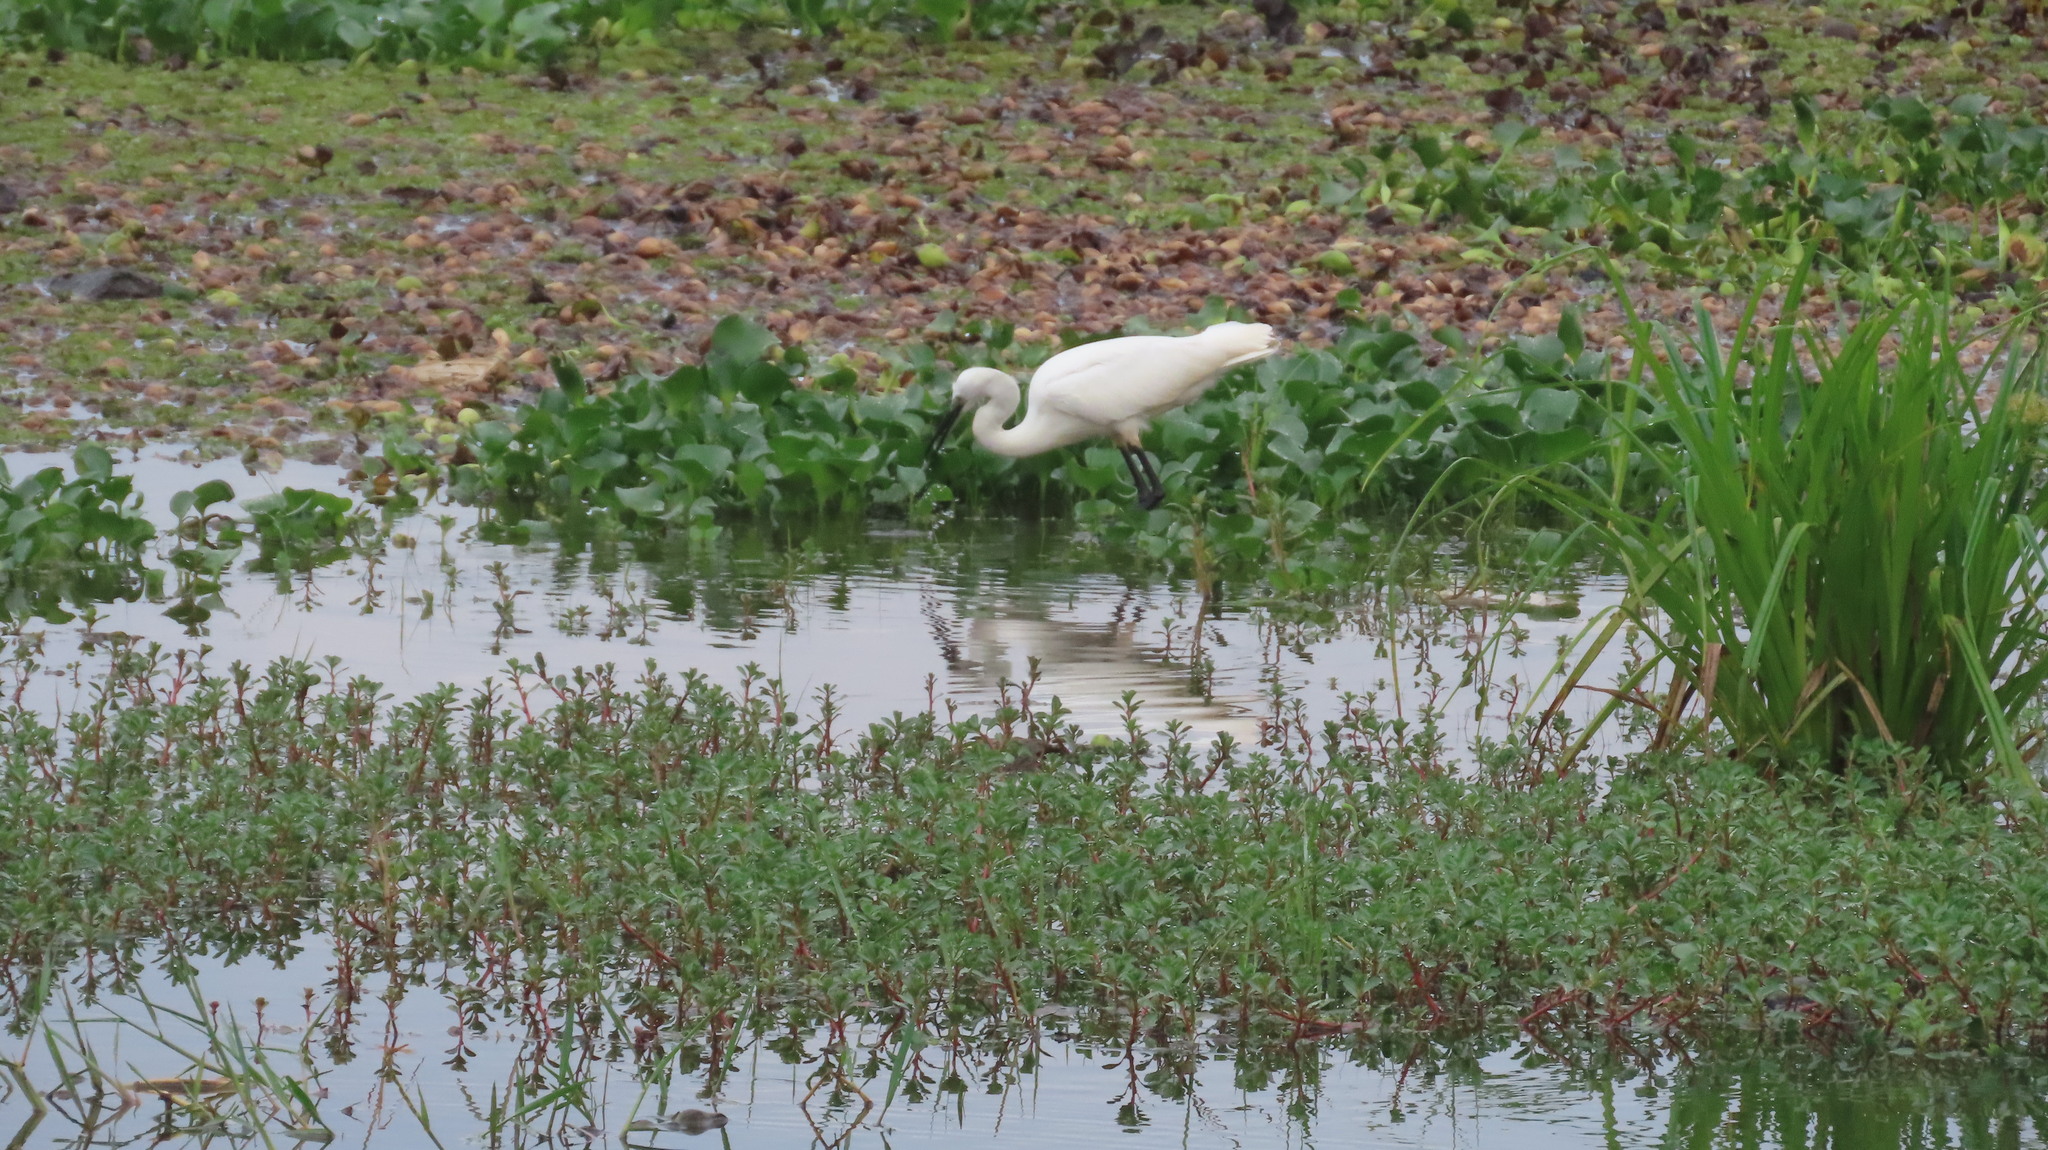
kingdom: Animalia
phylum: Chordata
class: Aves
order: Pelecaniformes
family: Ardeidae
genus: Egretta
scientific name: Egretta garzetta
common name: Little egret
